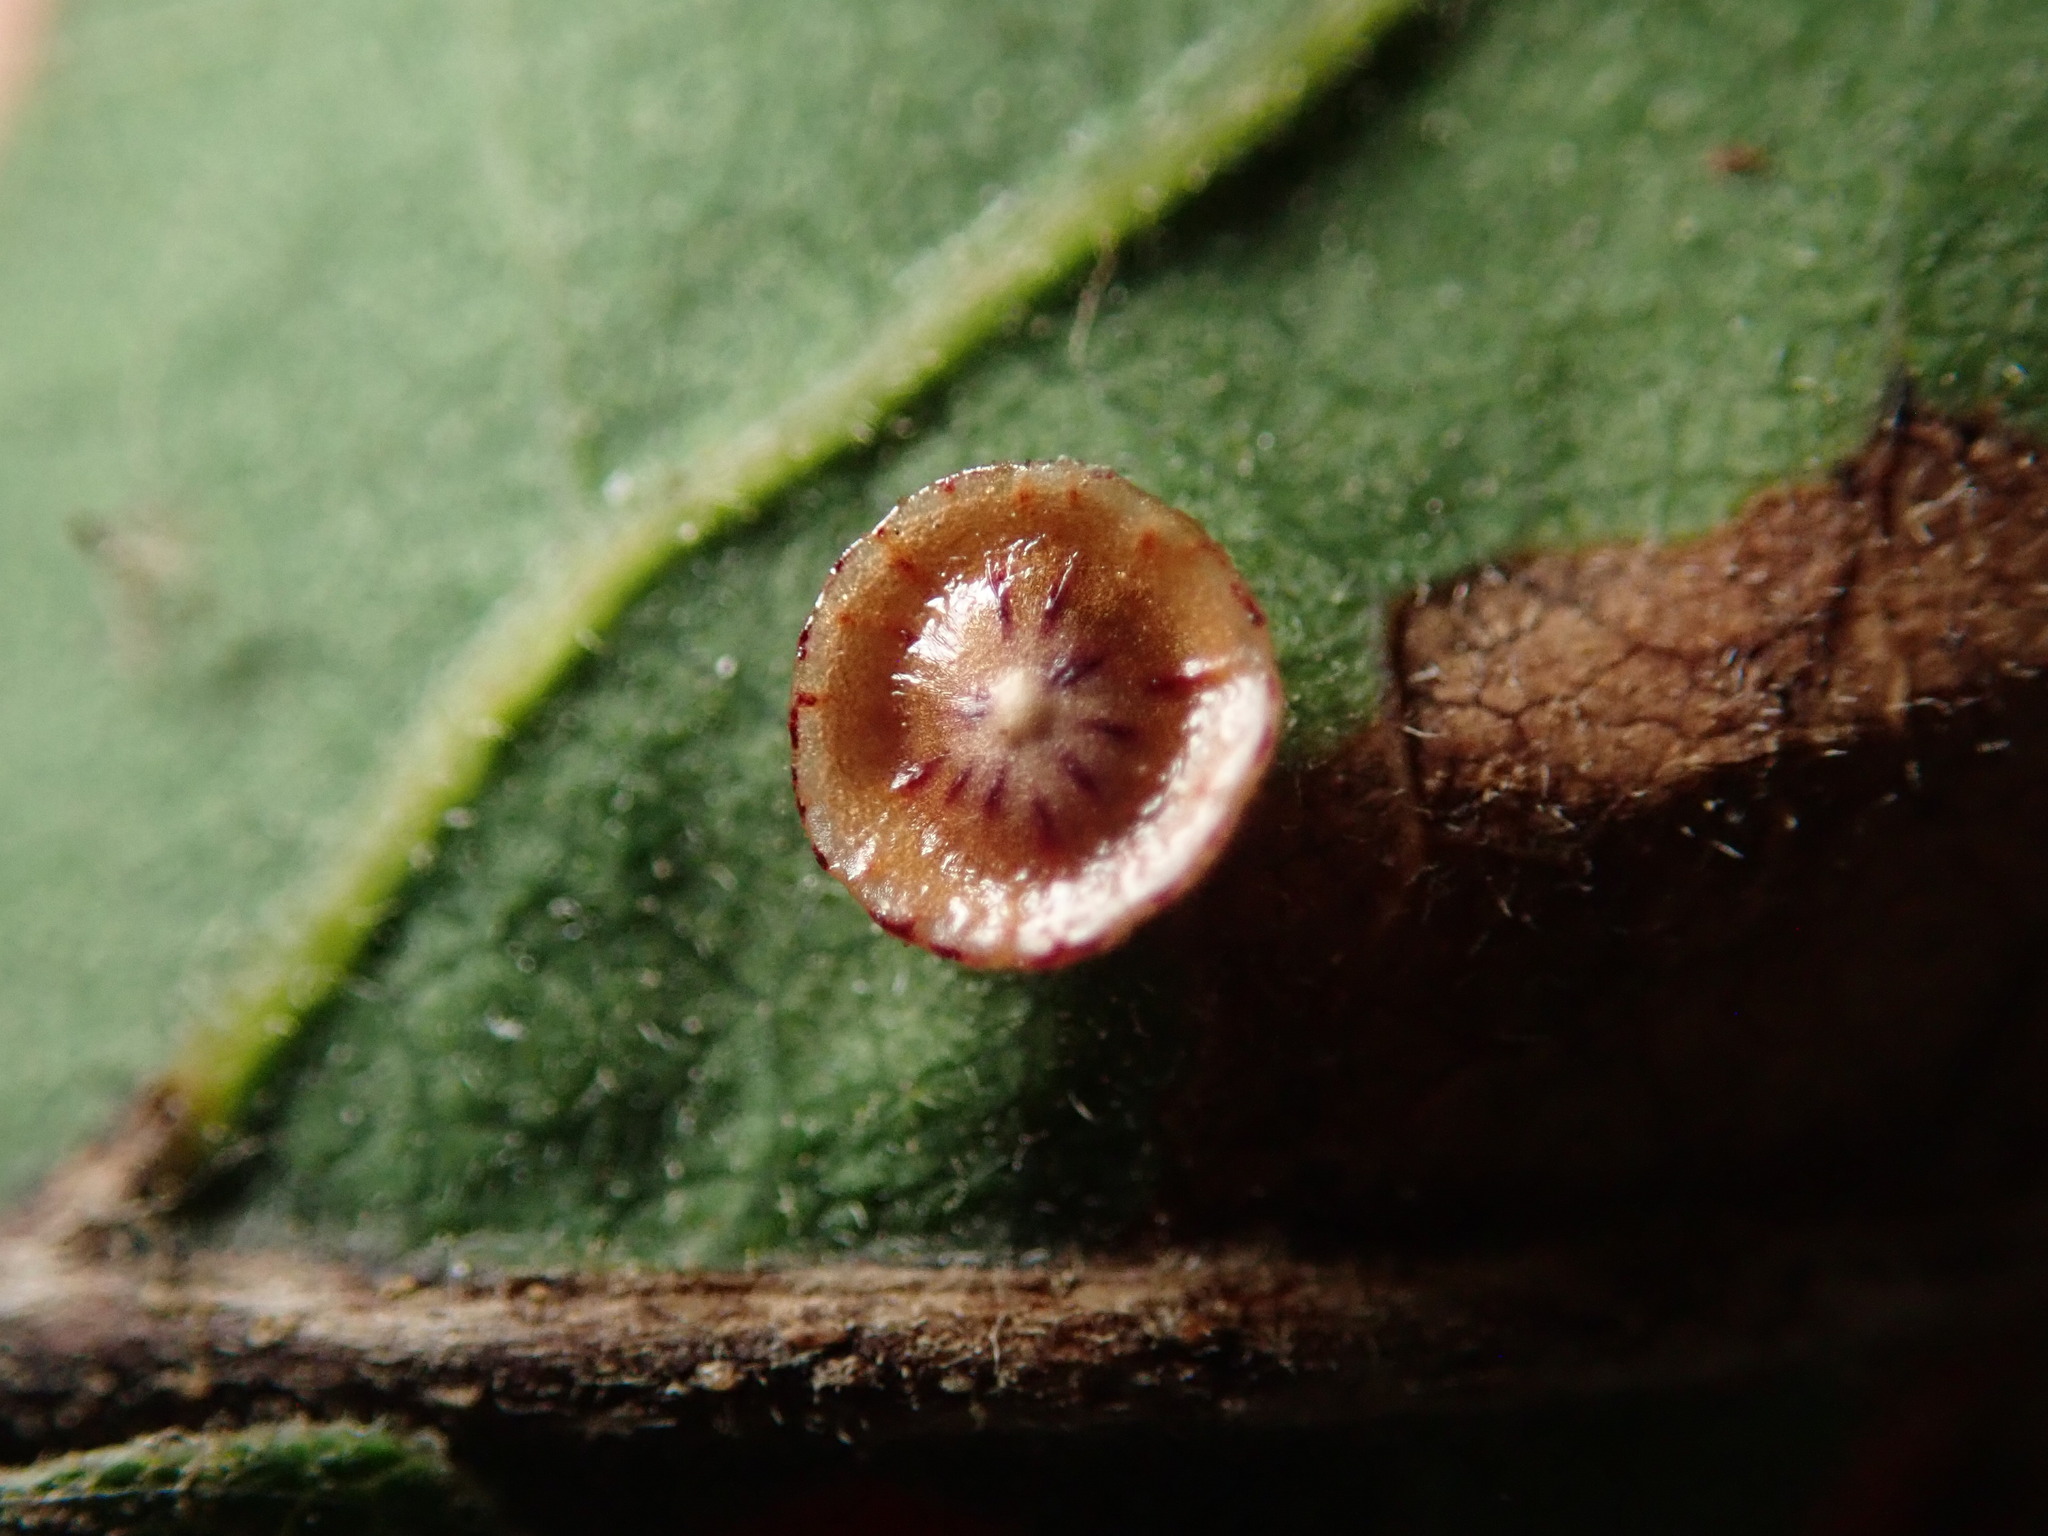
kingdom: Animalia
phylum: Arthropoda
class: Insecta
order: Hymenoptera
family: Cynipidae
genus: Andricus
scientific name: Andricus
